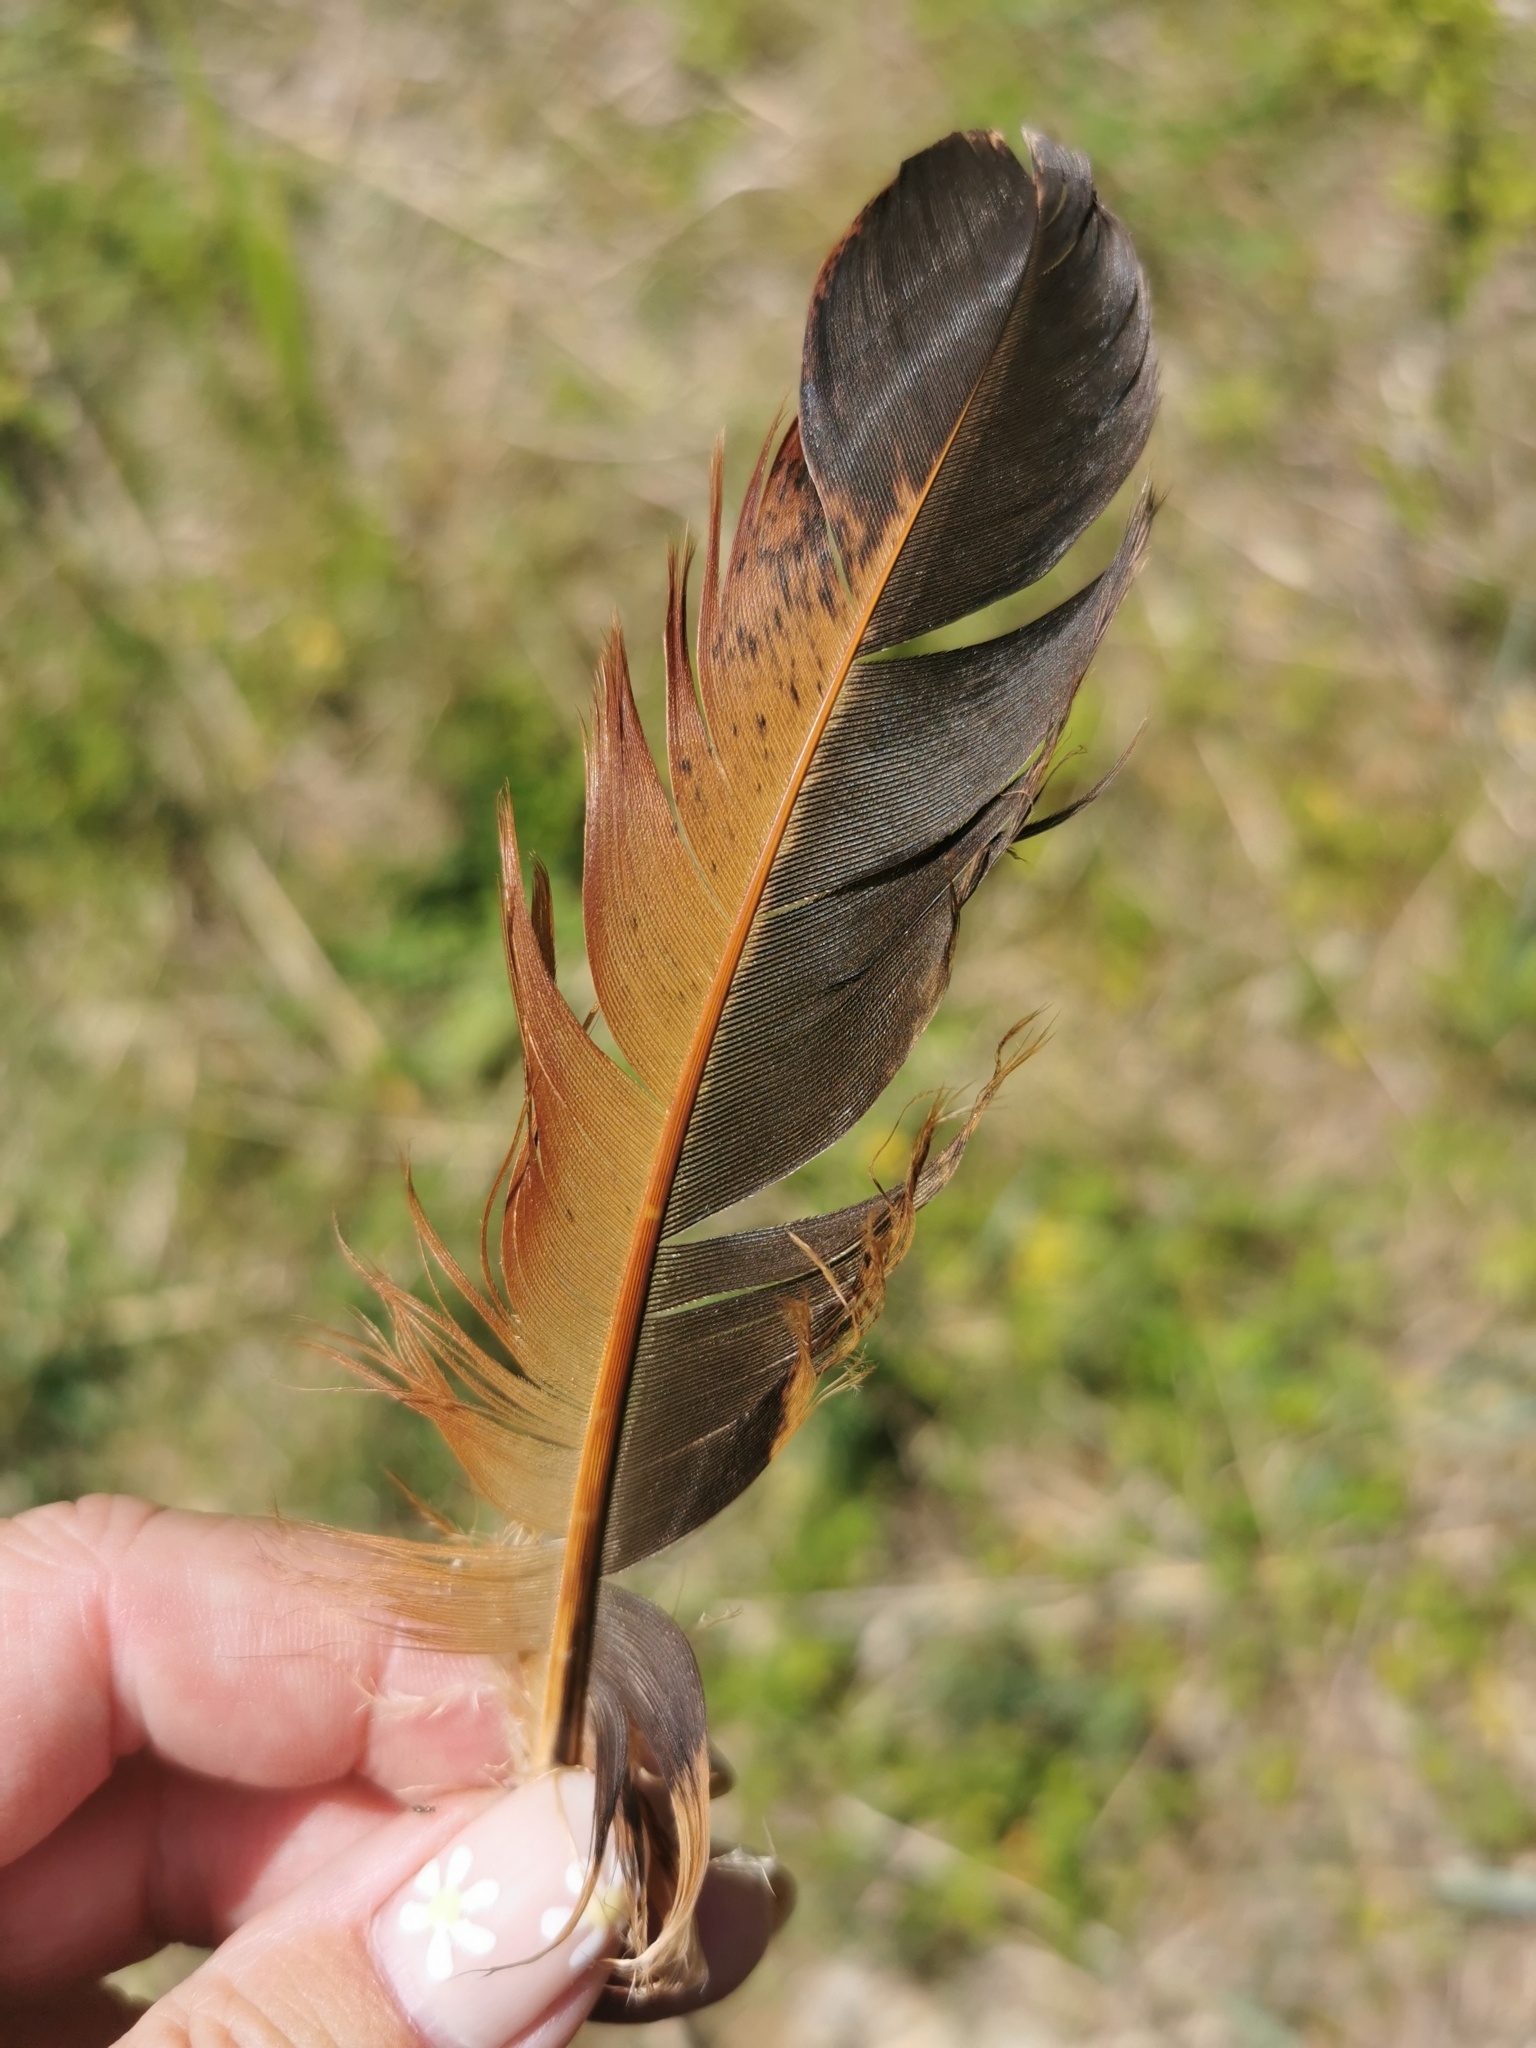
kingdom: Animalia
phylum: Chordata
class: Aves
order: Galliformes
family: Phasianidae
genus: Gallus
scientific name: Gallus gallus
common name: Red junglefowl
